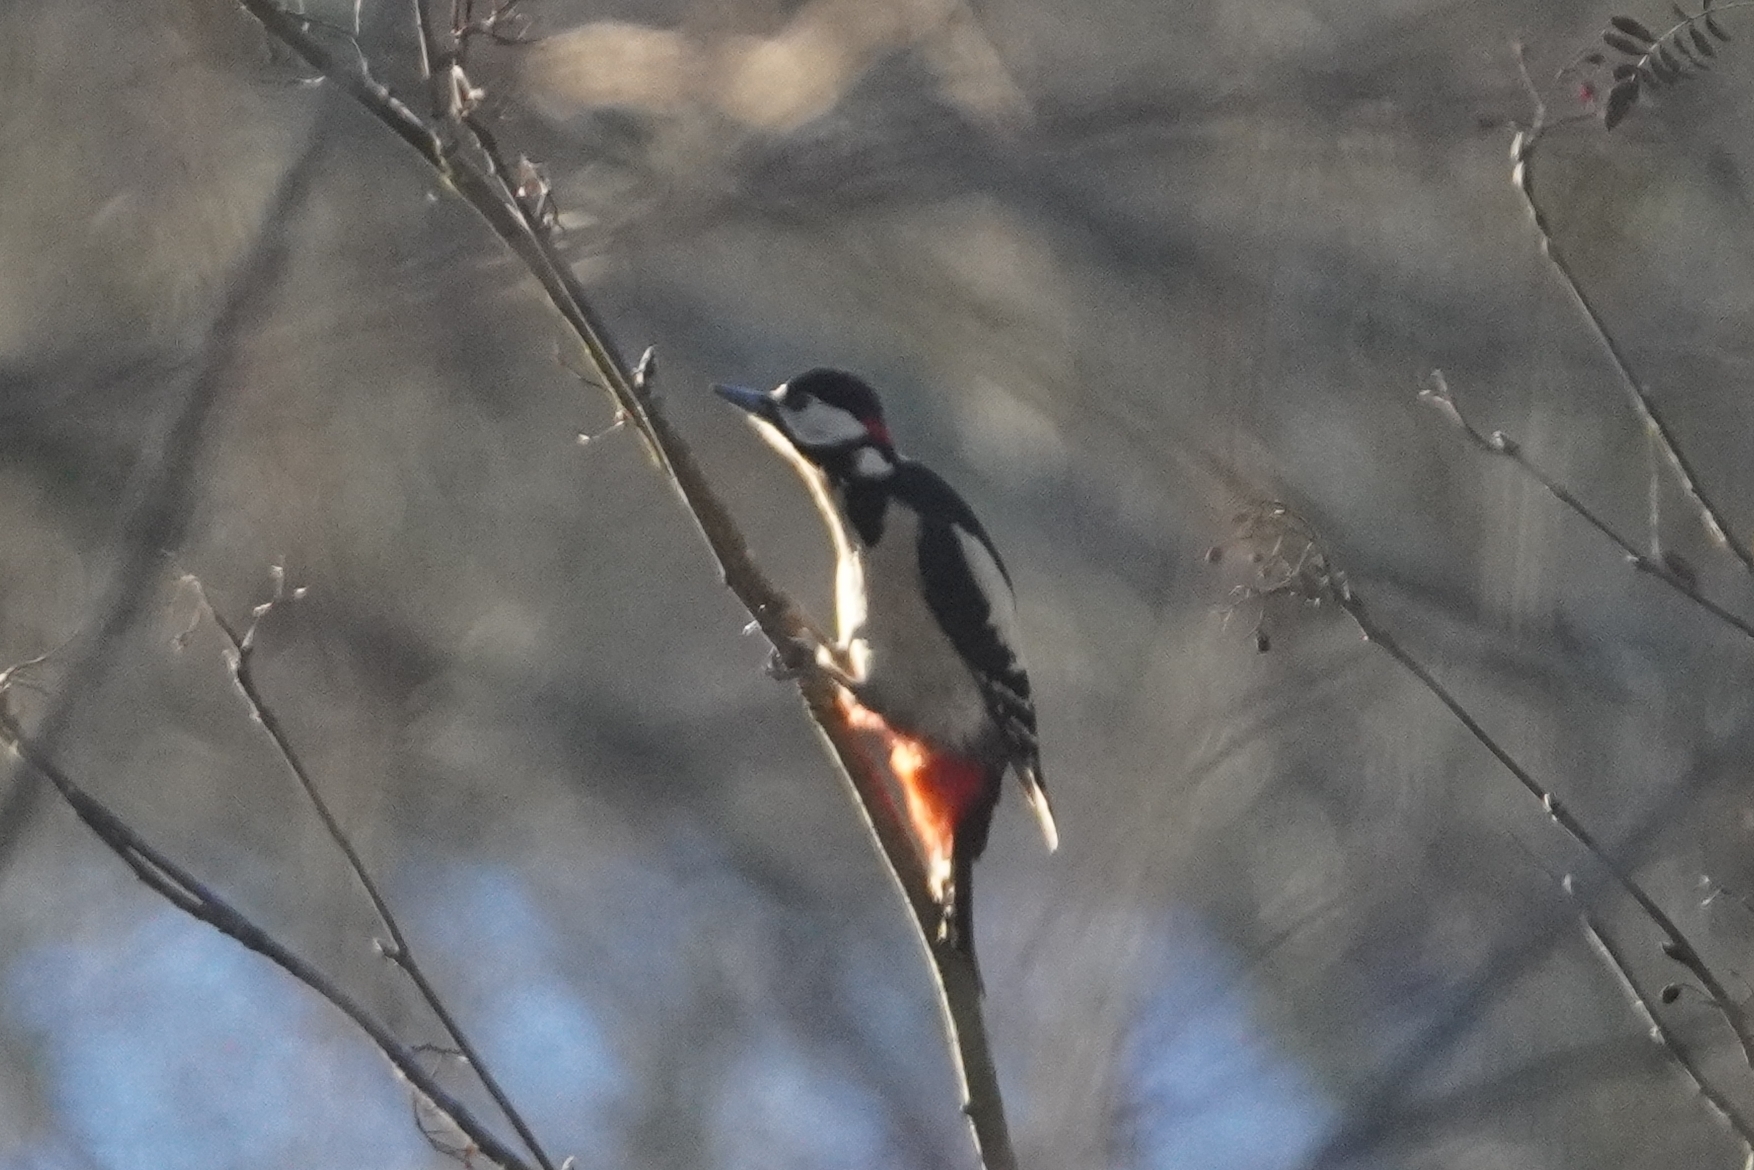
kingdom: Animalia
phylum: Chordata
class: Aves
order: Piciformes
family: Picidae
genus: Dendrocopos
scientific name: Dendrocopos major
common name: Great spotted woodpecker
